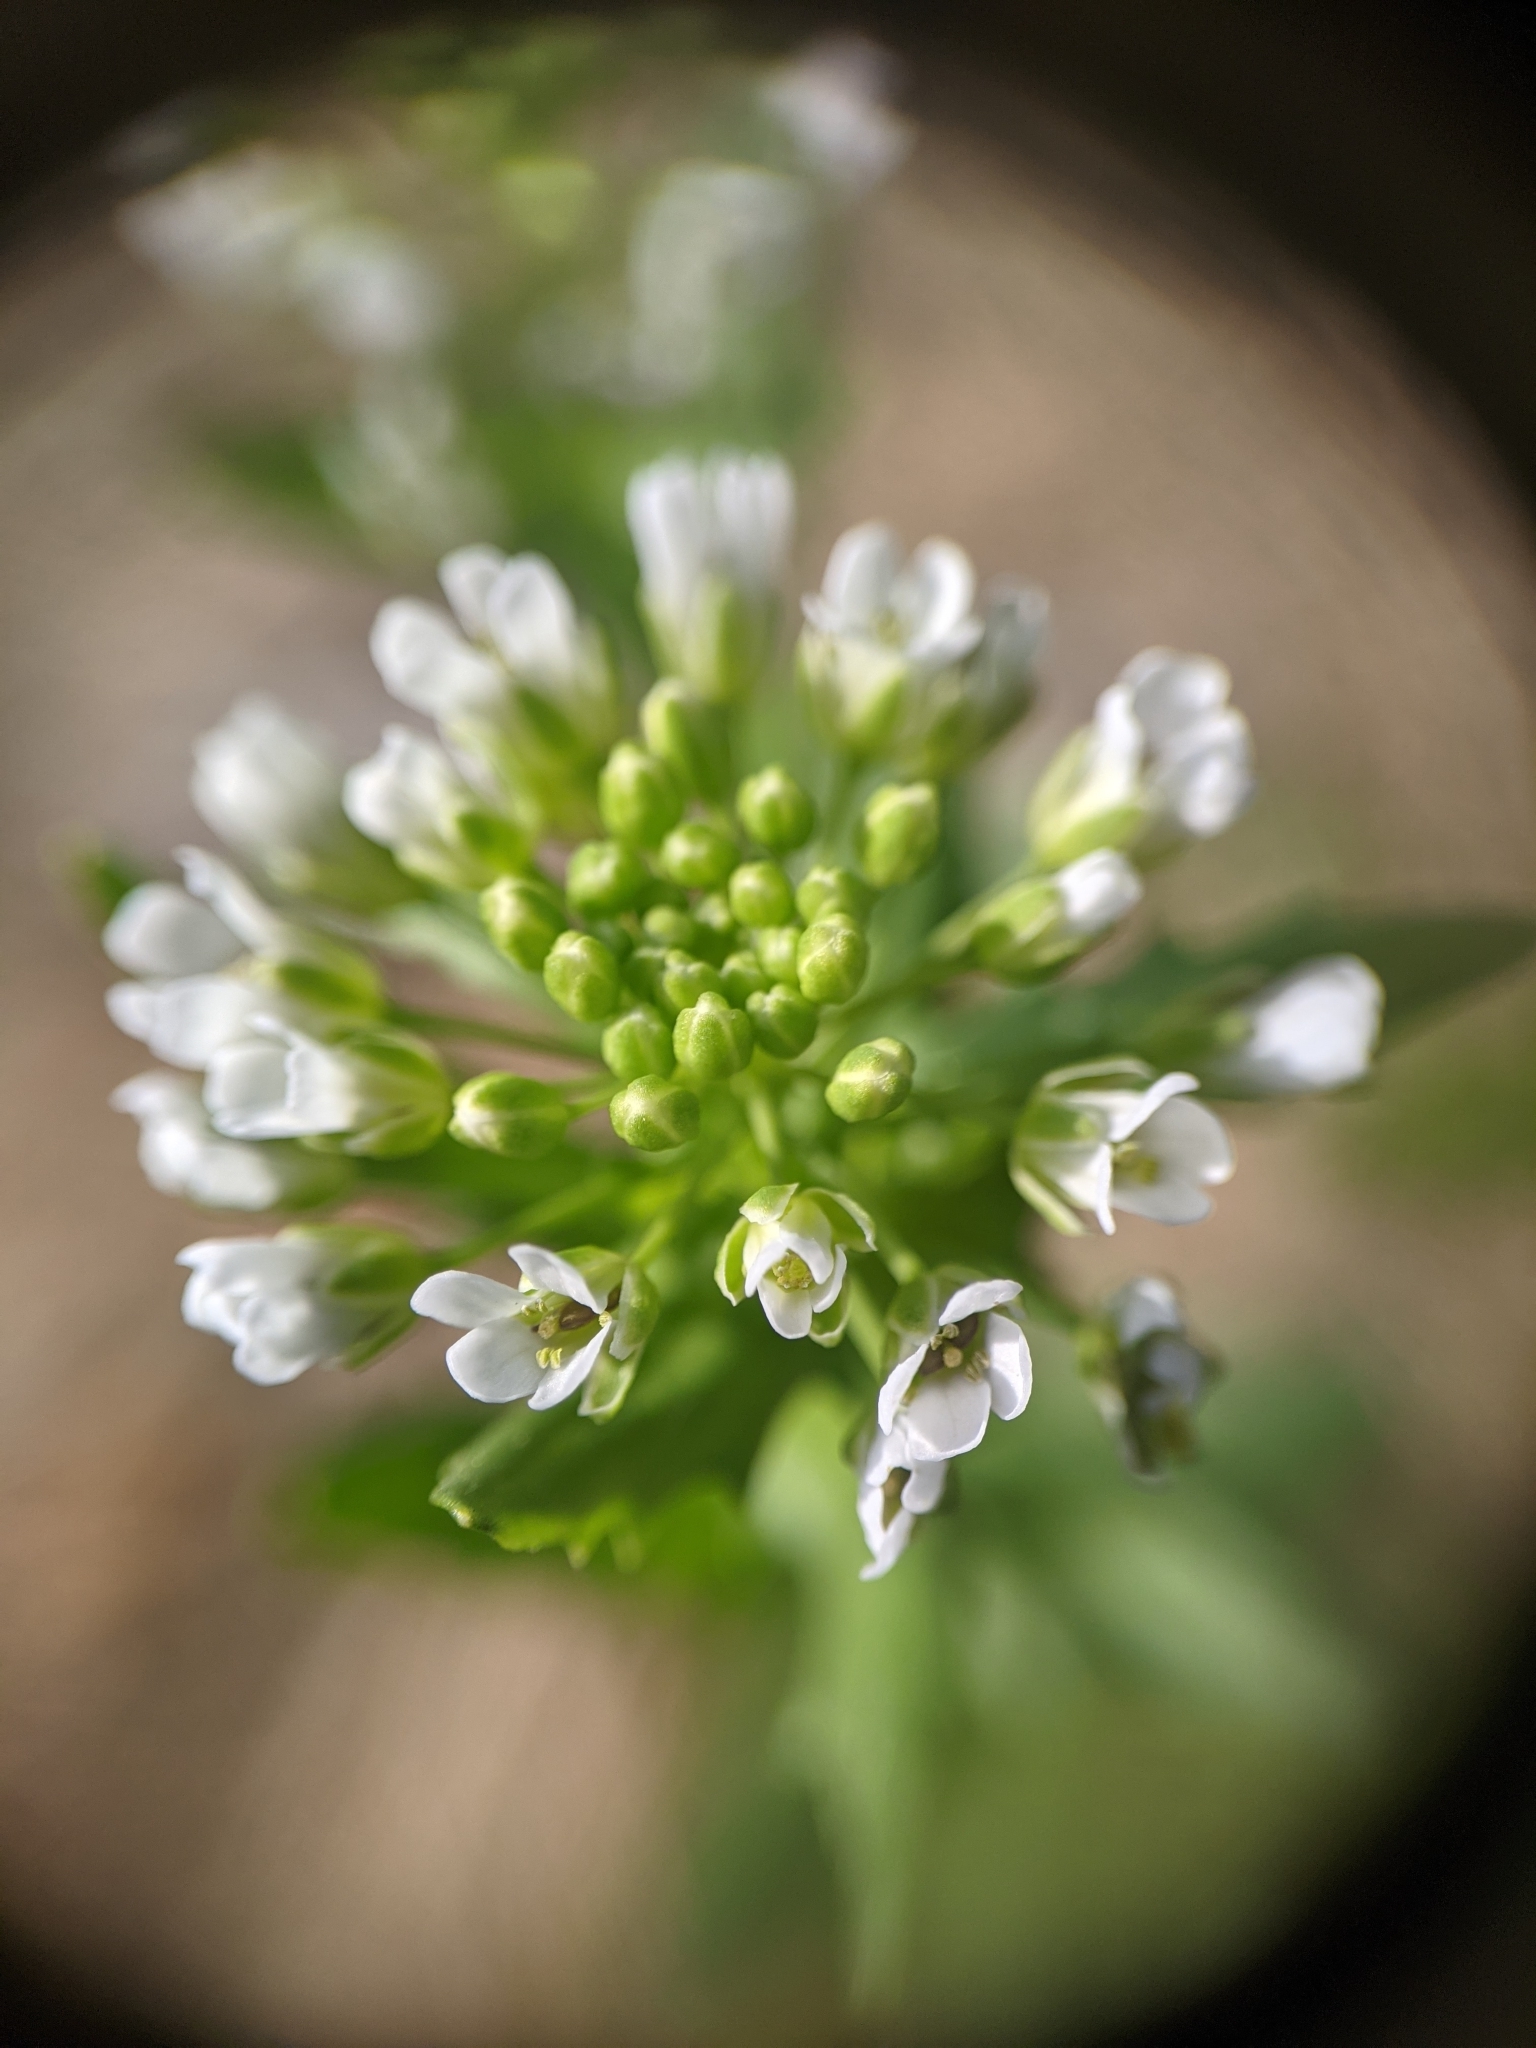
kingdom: Plantae
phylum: Tracheophyta
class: Magnoliopsida
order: Brassicales
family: Brassicaceae
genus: Thlaspi
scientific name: Thlaspi arvense
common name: Field pennycress
